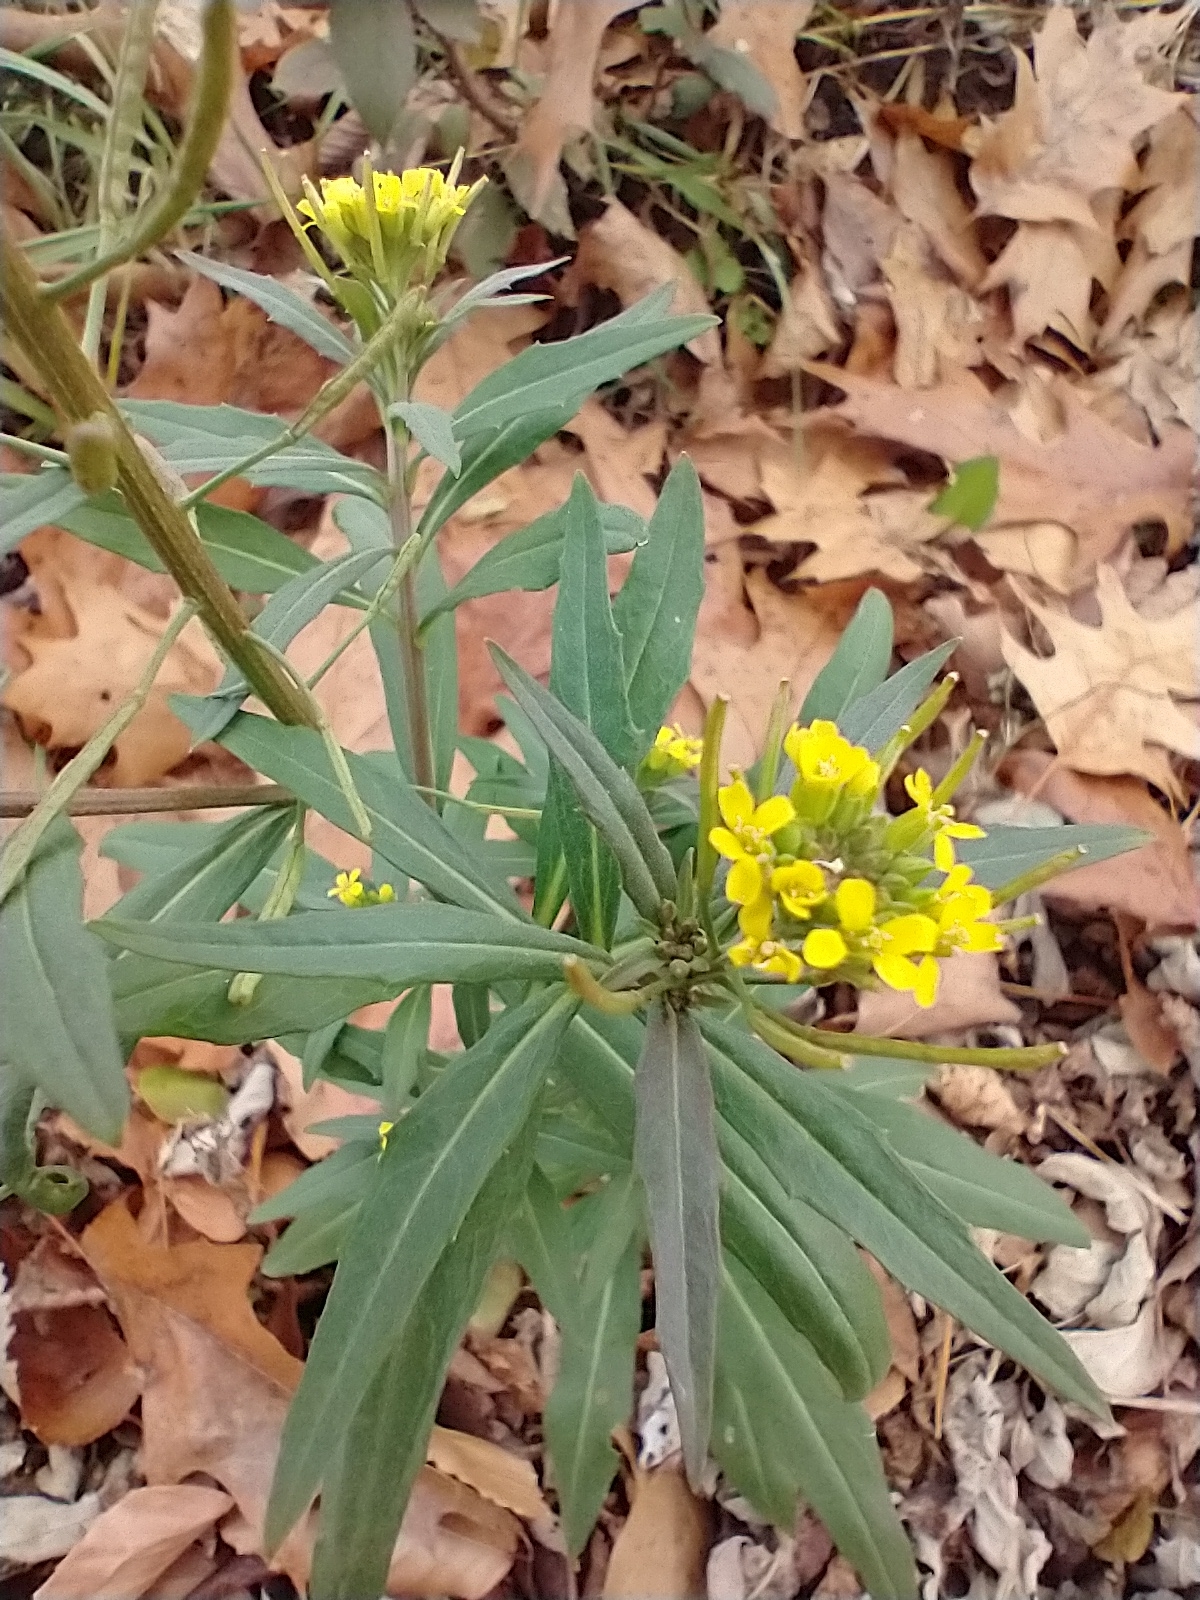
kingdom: Plantae
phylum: Tracheophyta
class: Magnoliopsida
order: Brassicales
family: Brassicaceae
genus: Erysimum
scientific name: Erysimum cheiranthoides
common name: Treacle mustard
